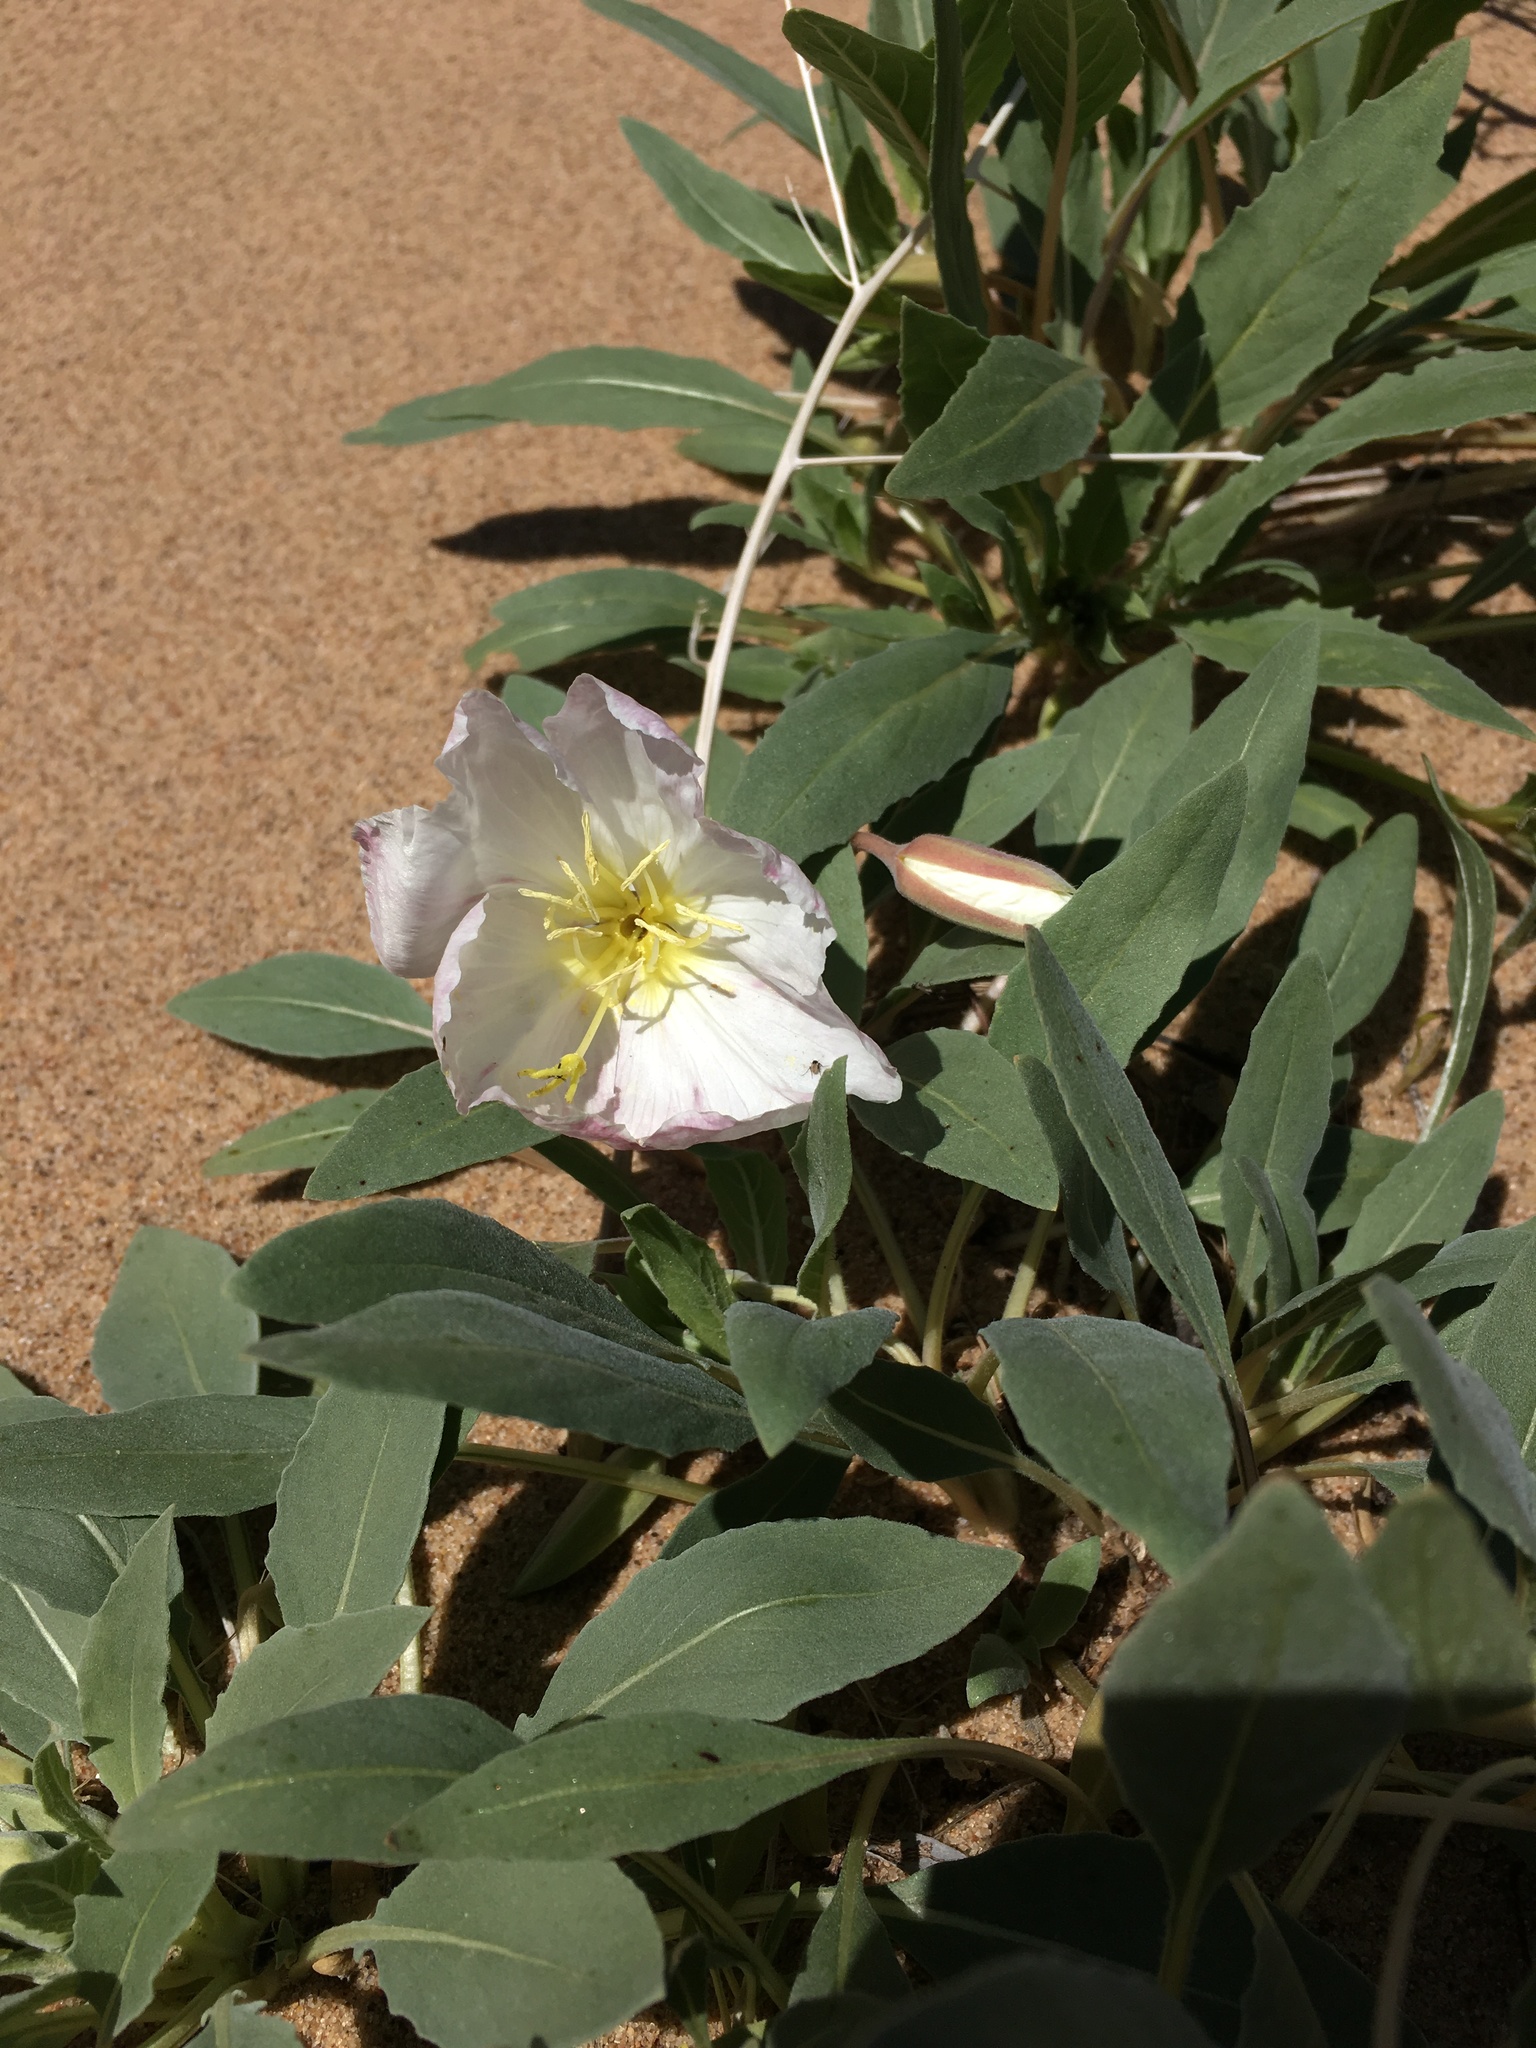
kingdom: Plantae
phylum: Tracheophyta
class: Magnoliopsida
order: Myrtales
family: Onagraceae
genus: Oenothera
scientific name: Oenothera deltoides
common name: Basket evening-primrose
